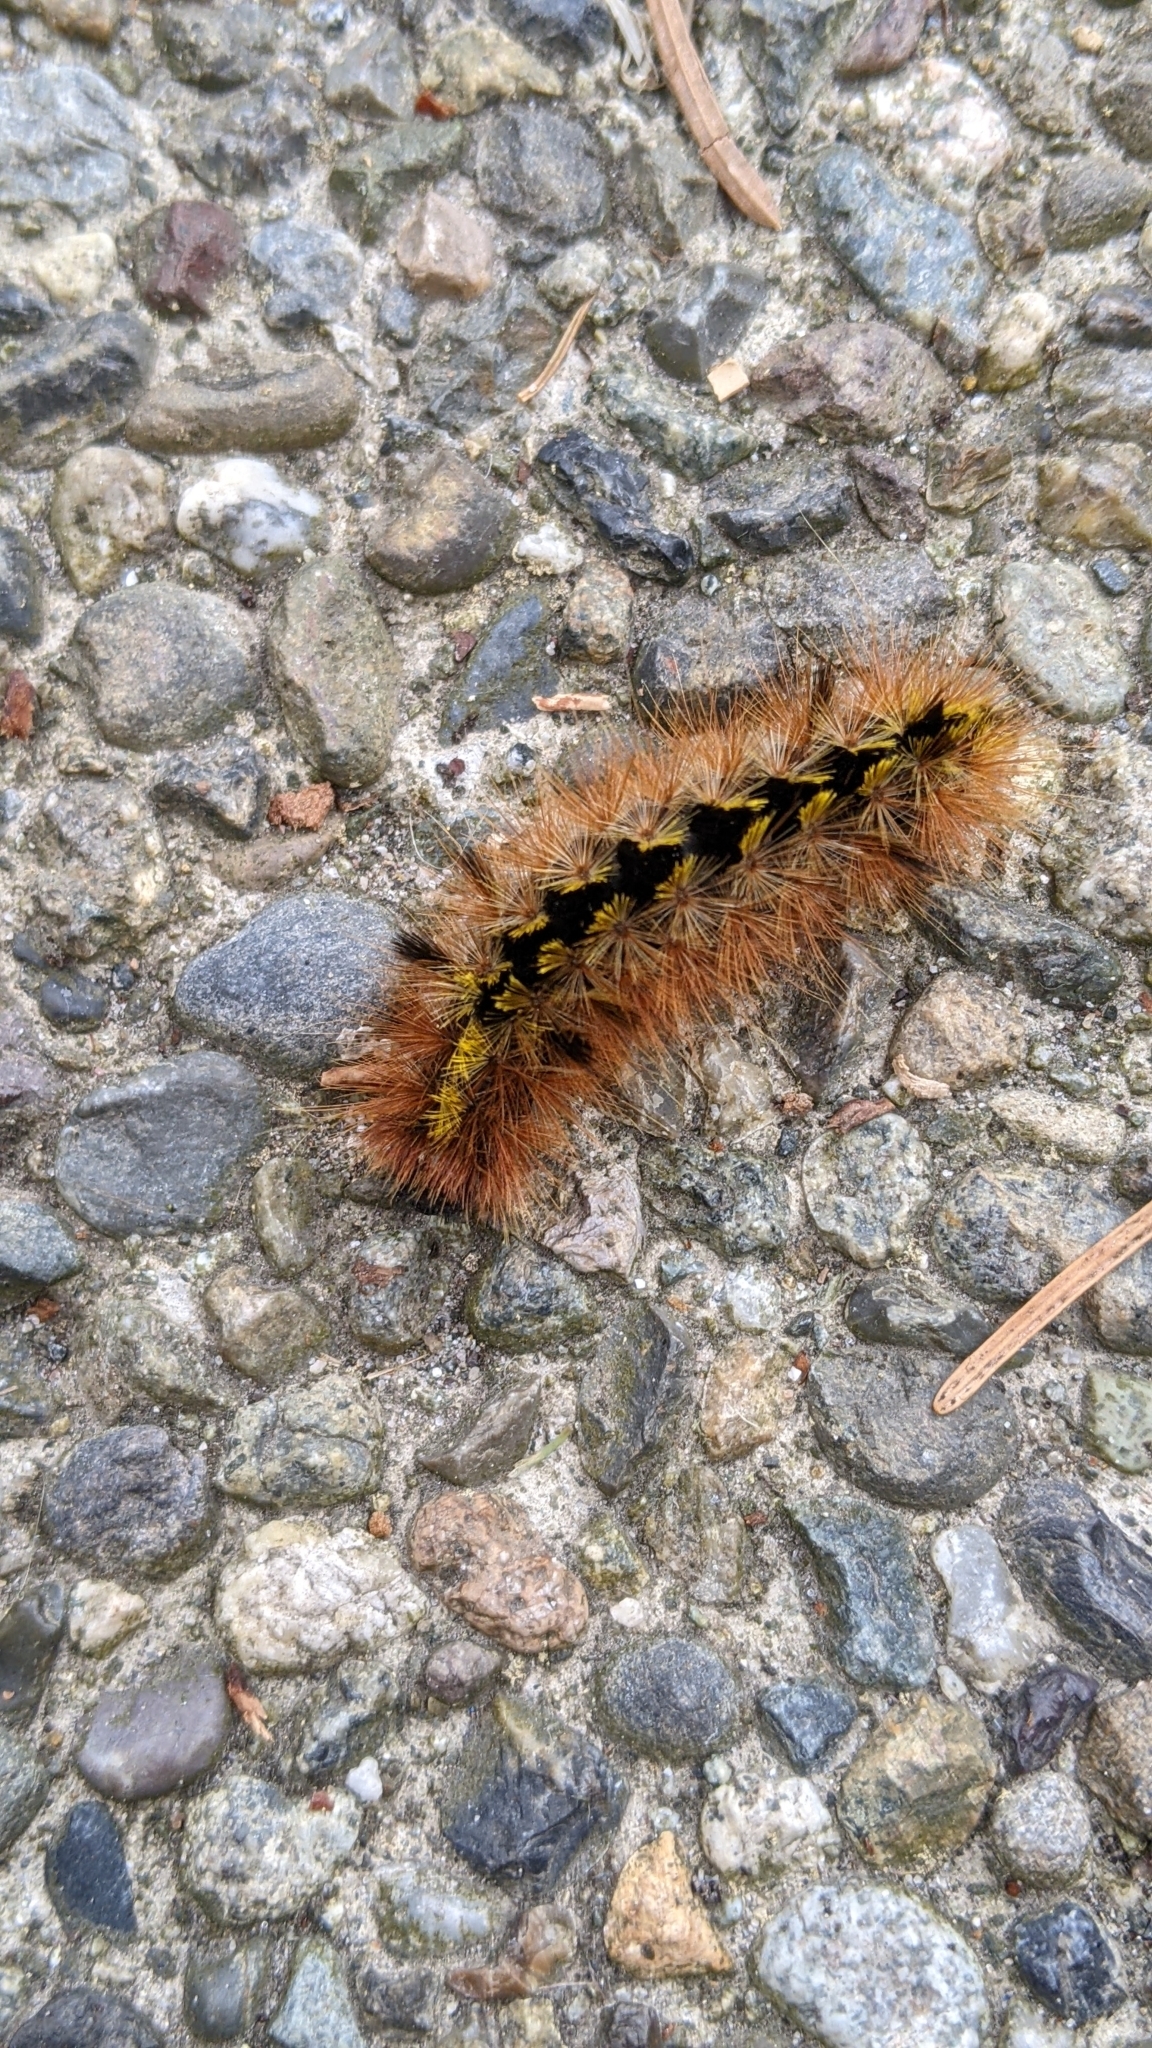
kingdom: Animalia
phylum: Arthropoda
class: Insecta
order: Lepidoptera
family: Erebidae
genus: Lophocampa
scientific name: Lophocampa argentata
